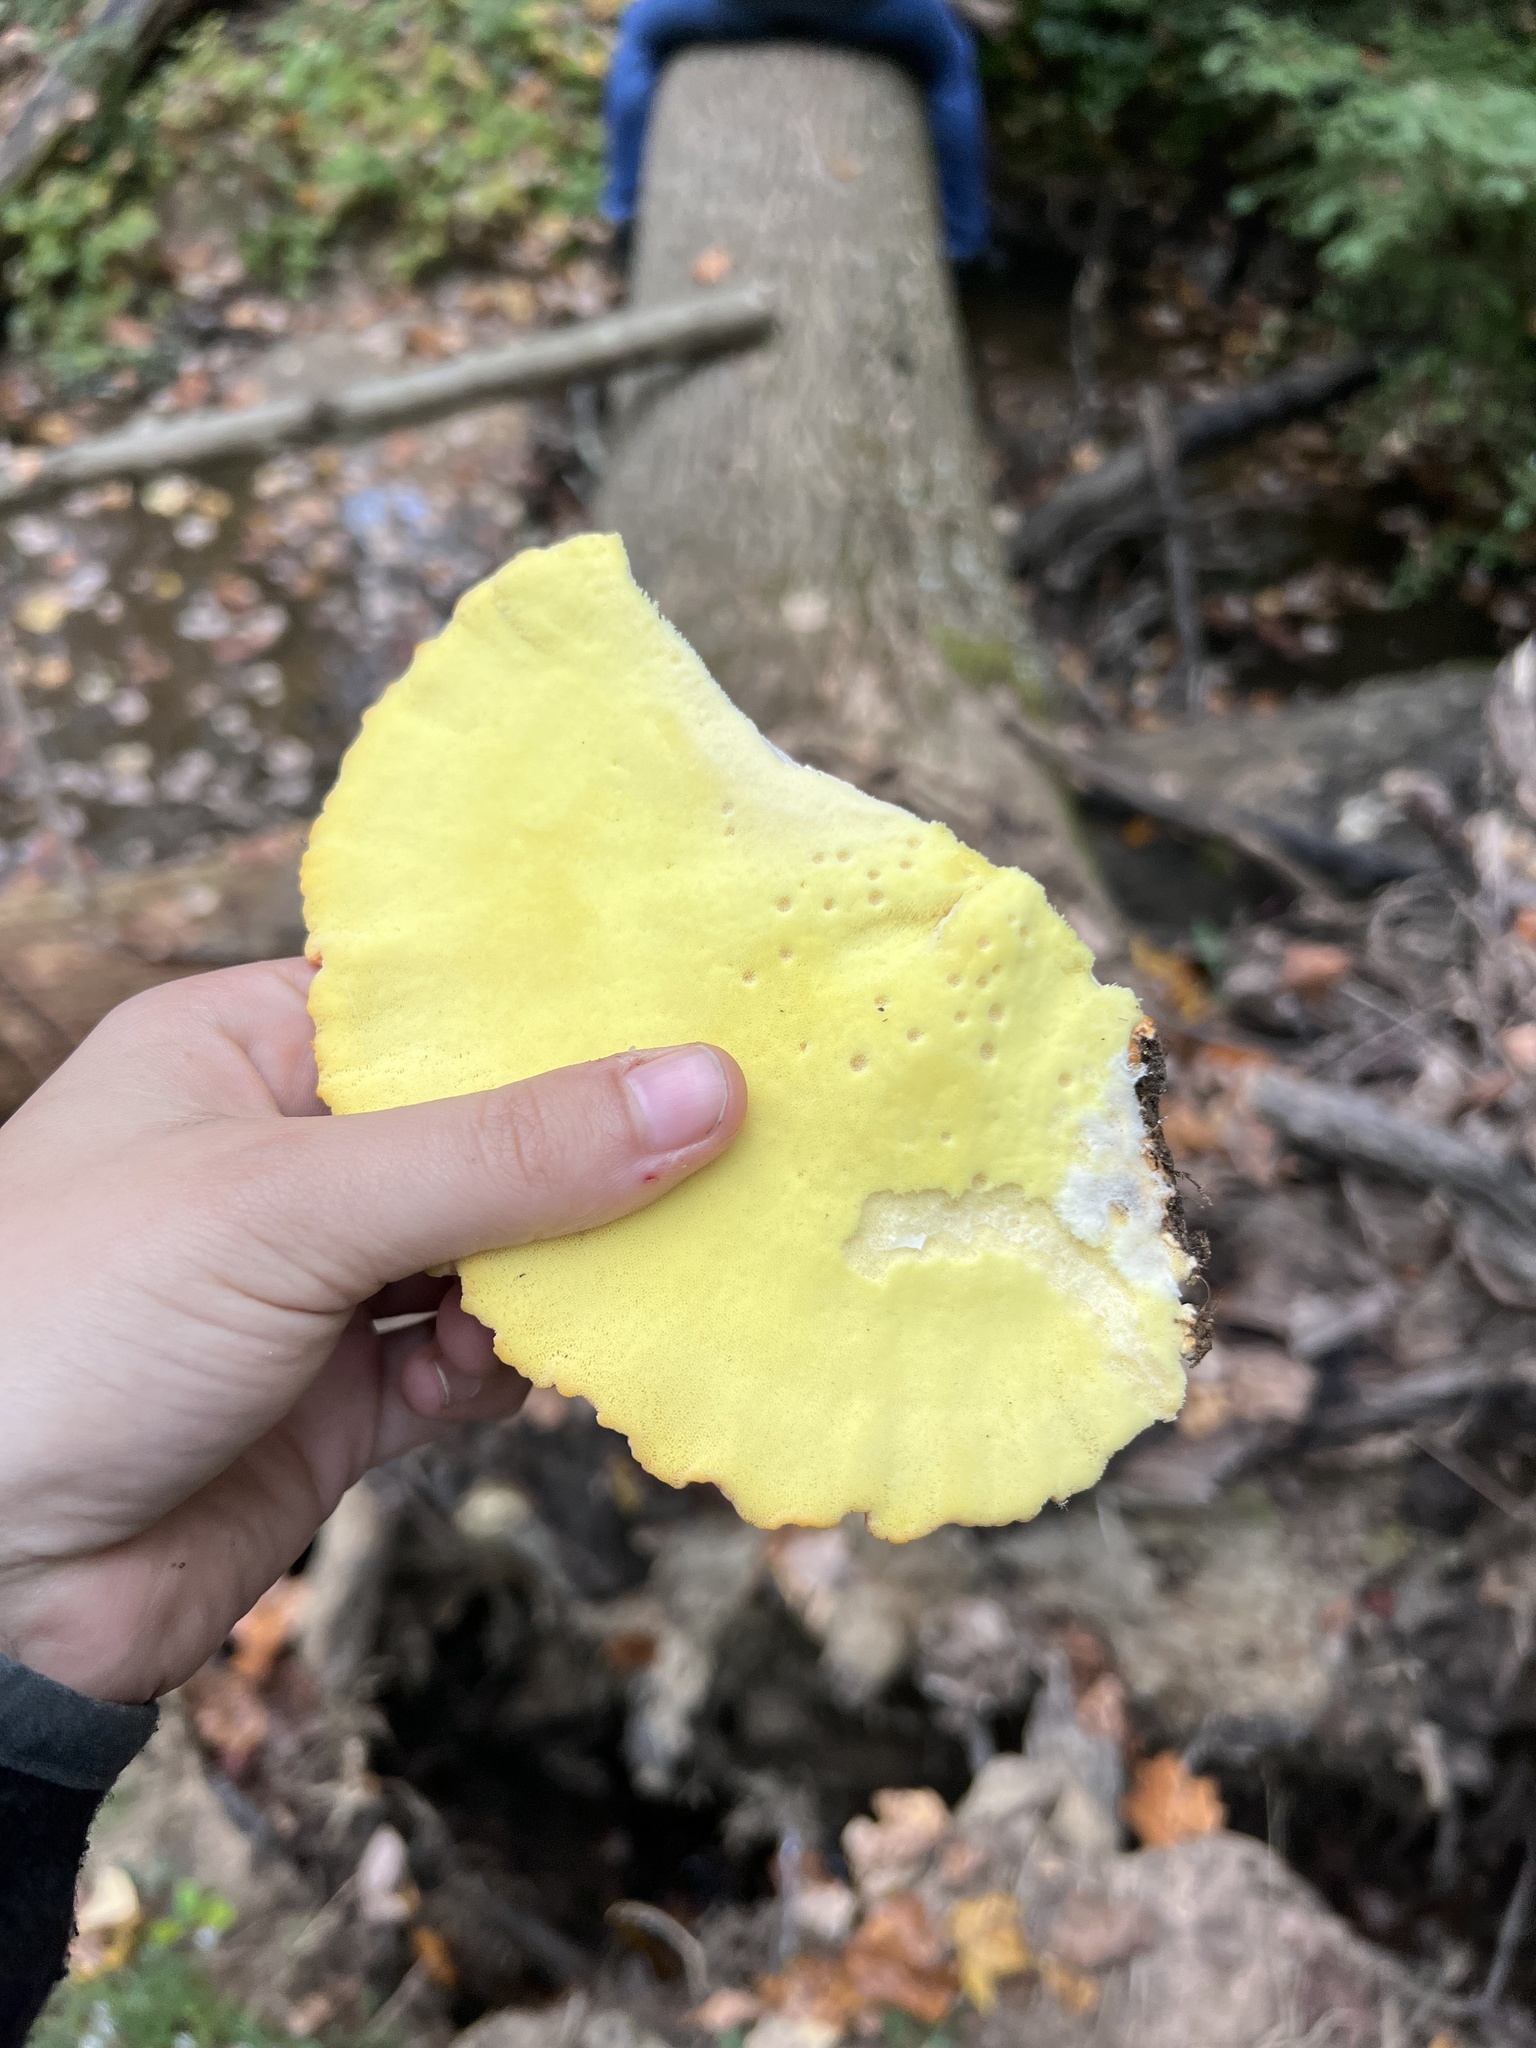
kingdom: Fungi
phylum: Basidiomycota
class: Agaricomycetes
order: Polyporales
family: Laetiporaceae
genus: Laetiporus
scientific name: Laetiporus sulphureus
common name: Chicken of the woods
